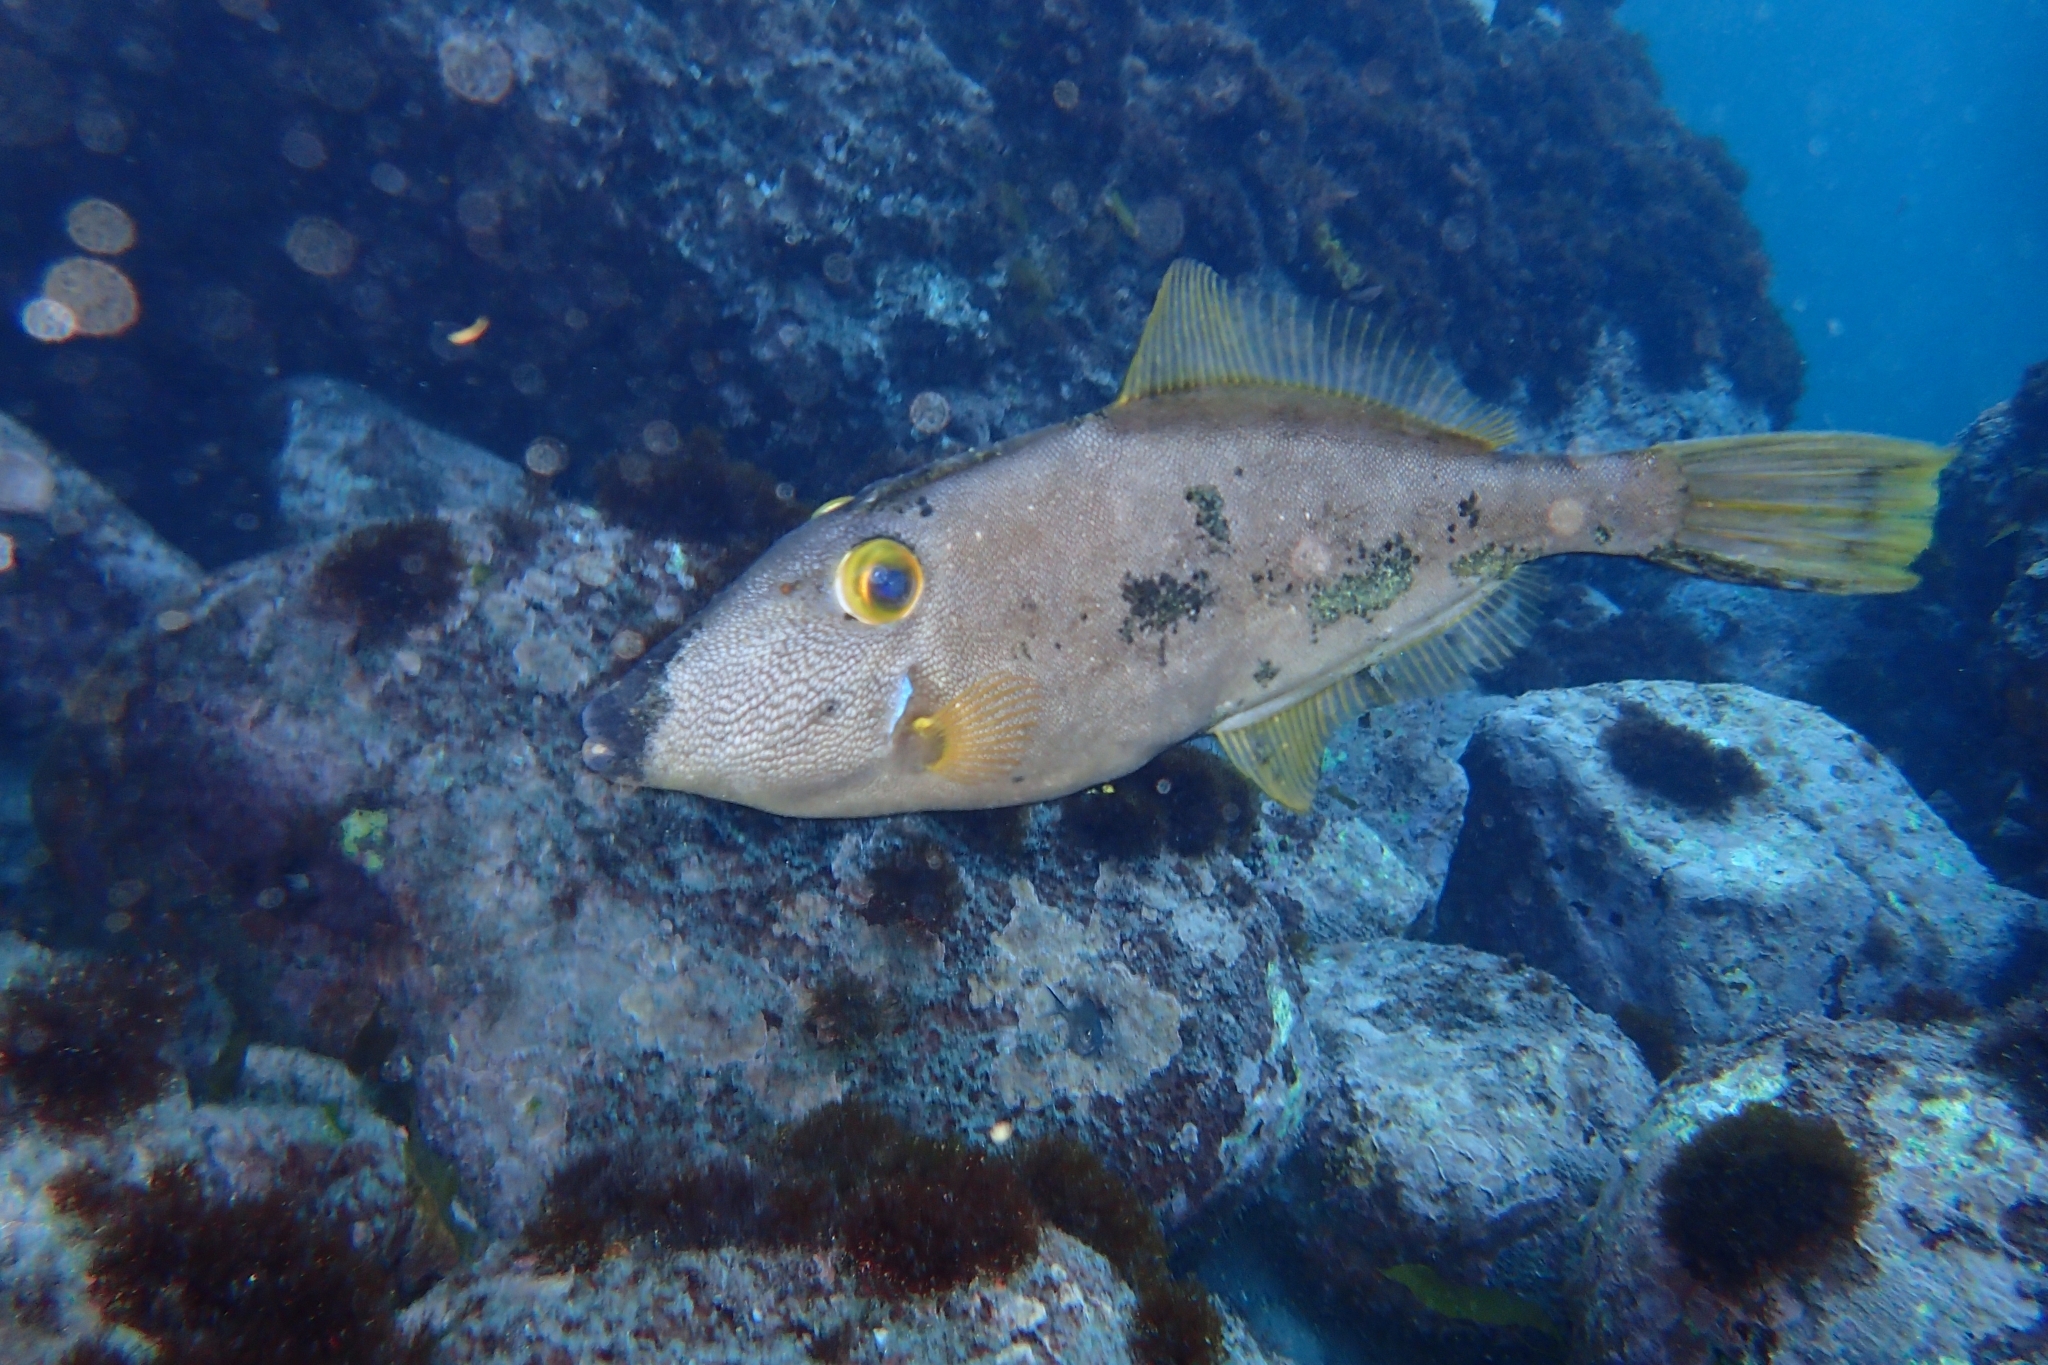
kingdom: Animalia
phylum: Chordata
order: Tetraodontiformes
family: Monacanthidae
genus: Meuschenia
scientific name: Meuschenia scaber
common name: Cosmopolitan leatherjacket
